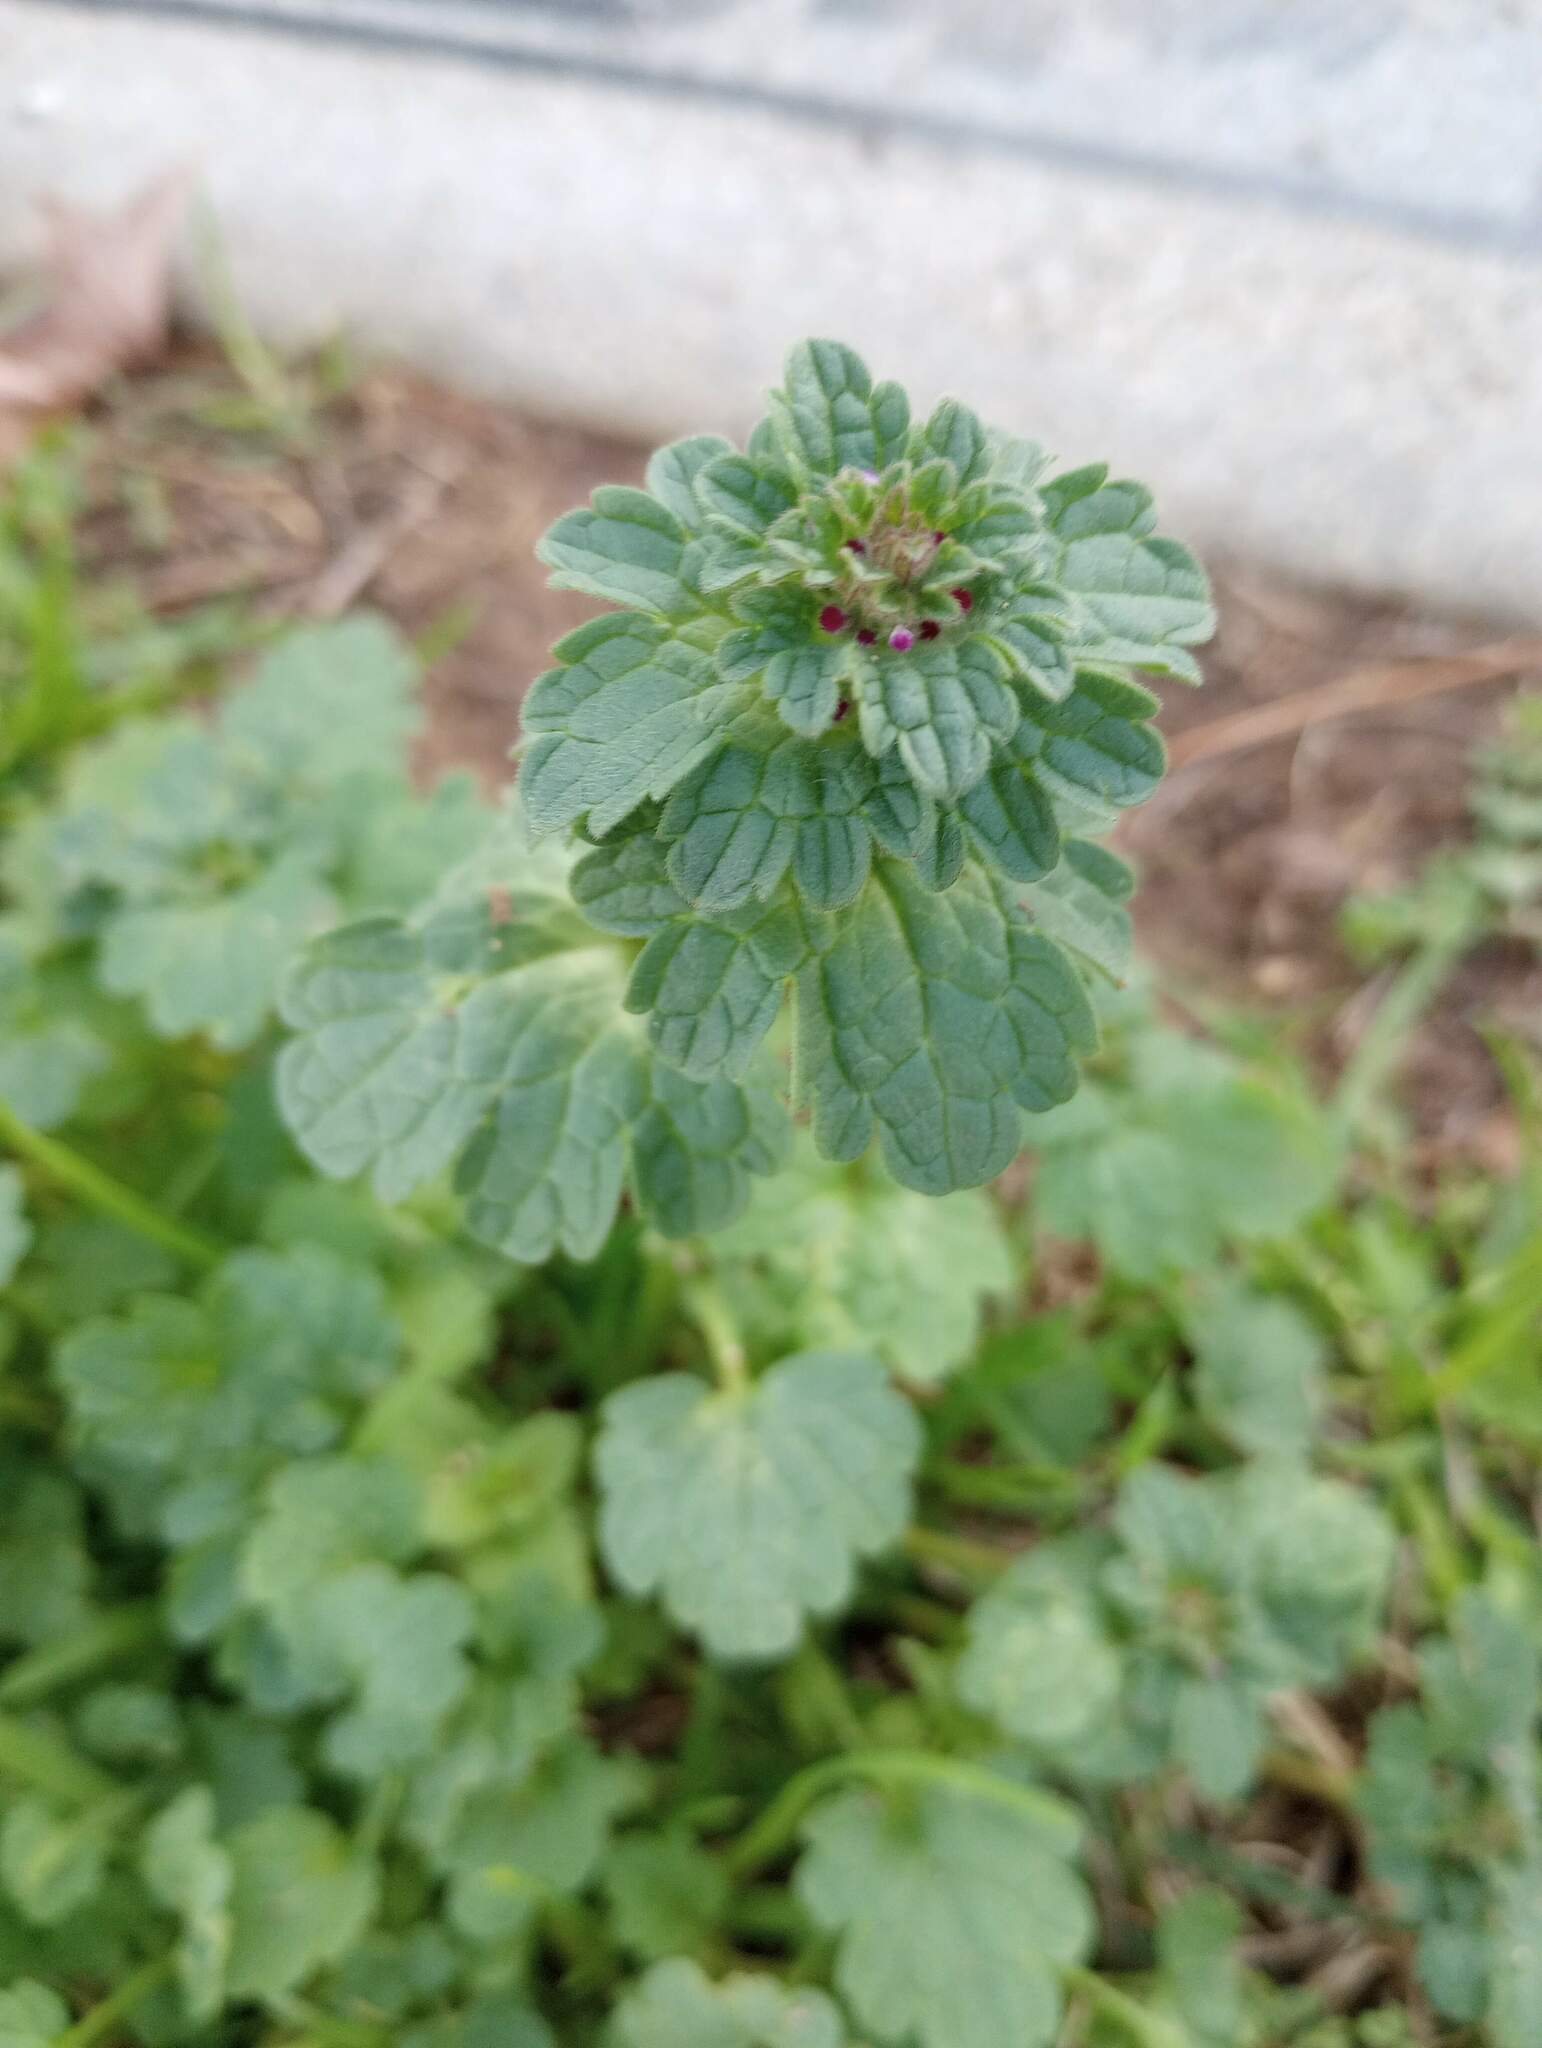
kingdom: Plantae
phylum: Tracheophyta
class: Magnoliopsida
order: Lamiales
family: Lamiaceae
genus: Lamium
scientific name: Lamium amplexicaule
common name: Henbit dead-nettle
